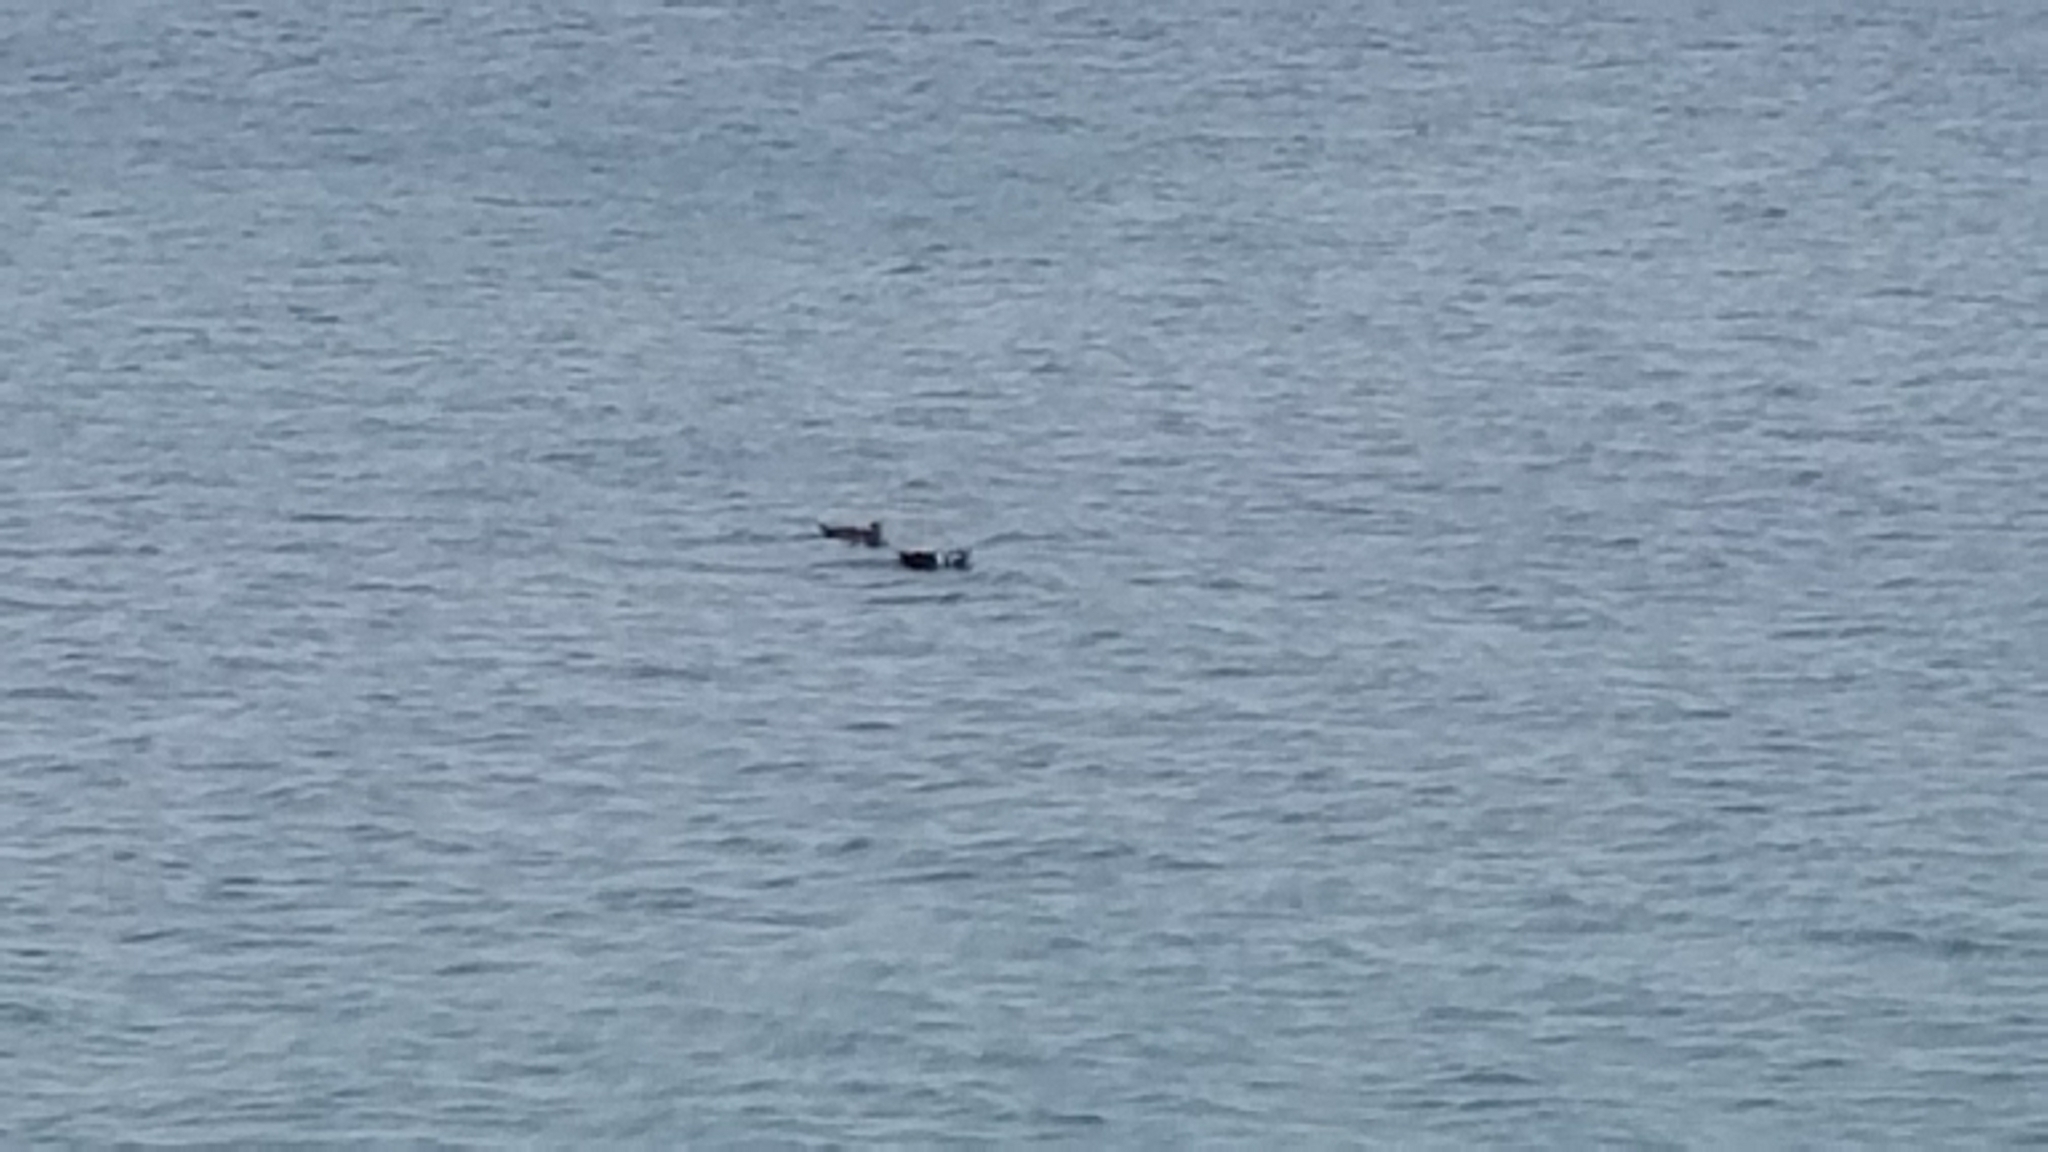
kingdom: Animalia
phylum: Chordata
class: Aves
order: Anseriformes
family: Anatidae
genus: Histrionicus
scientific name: Histrionicus histrionicus
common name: Harlequin duck
